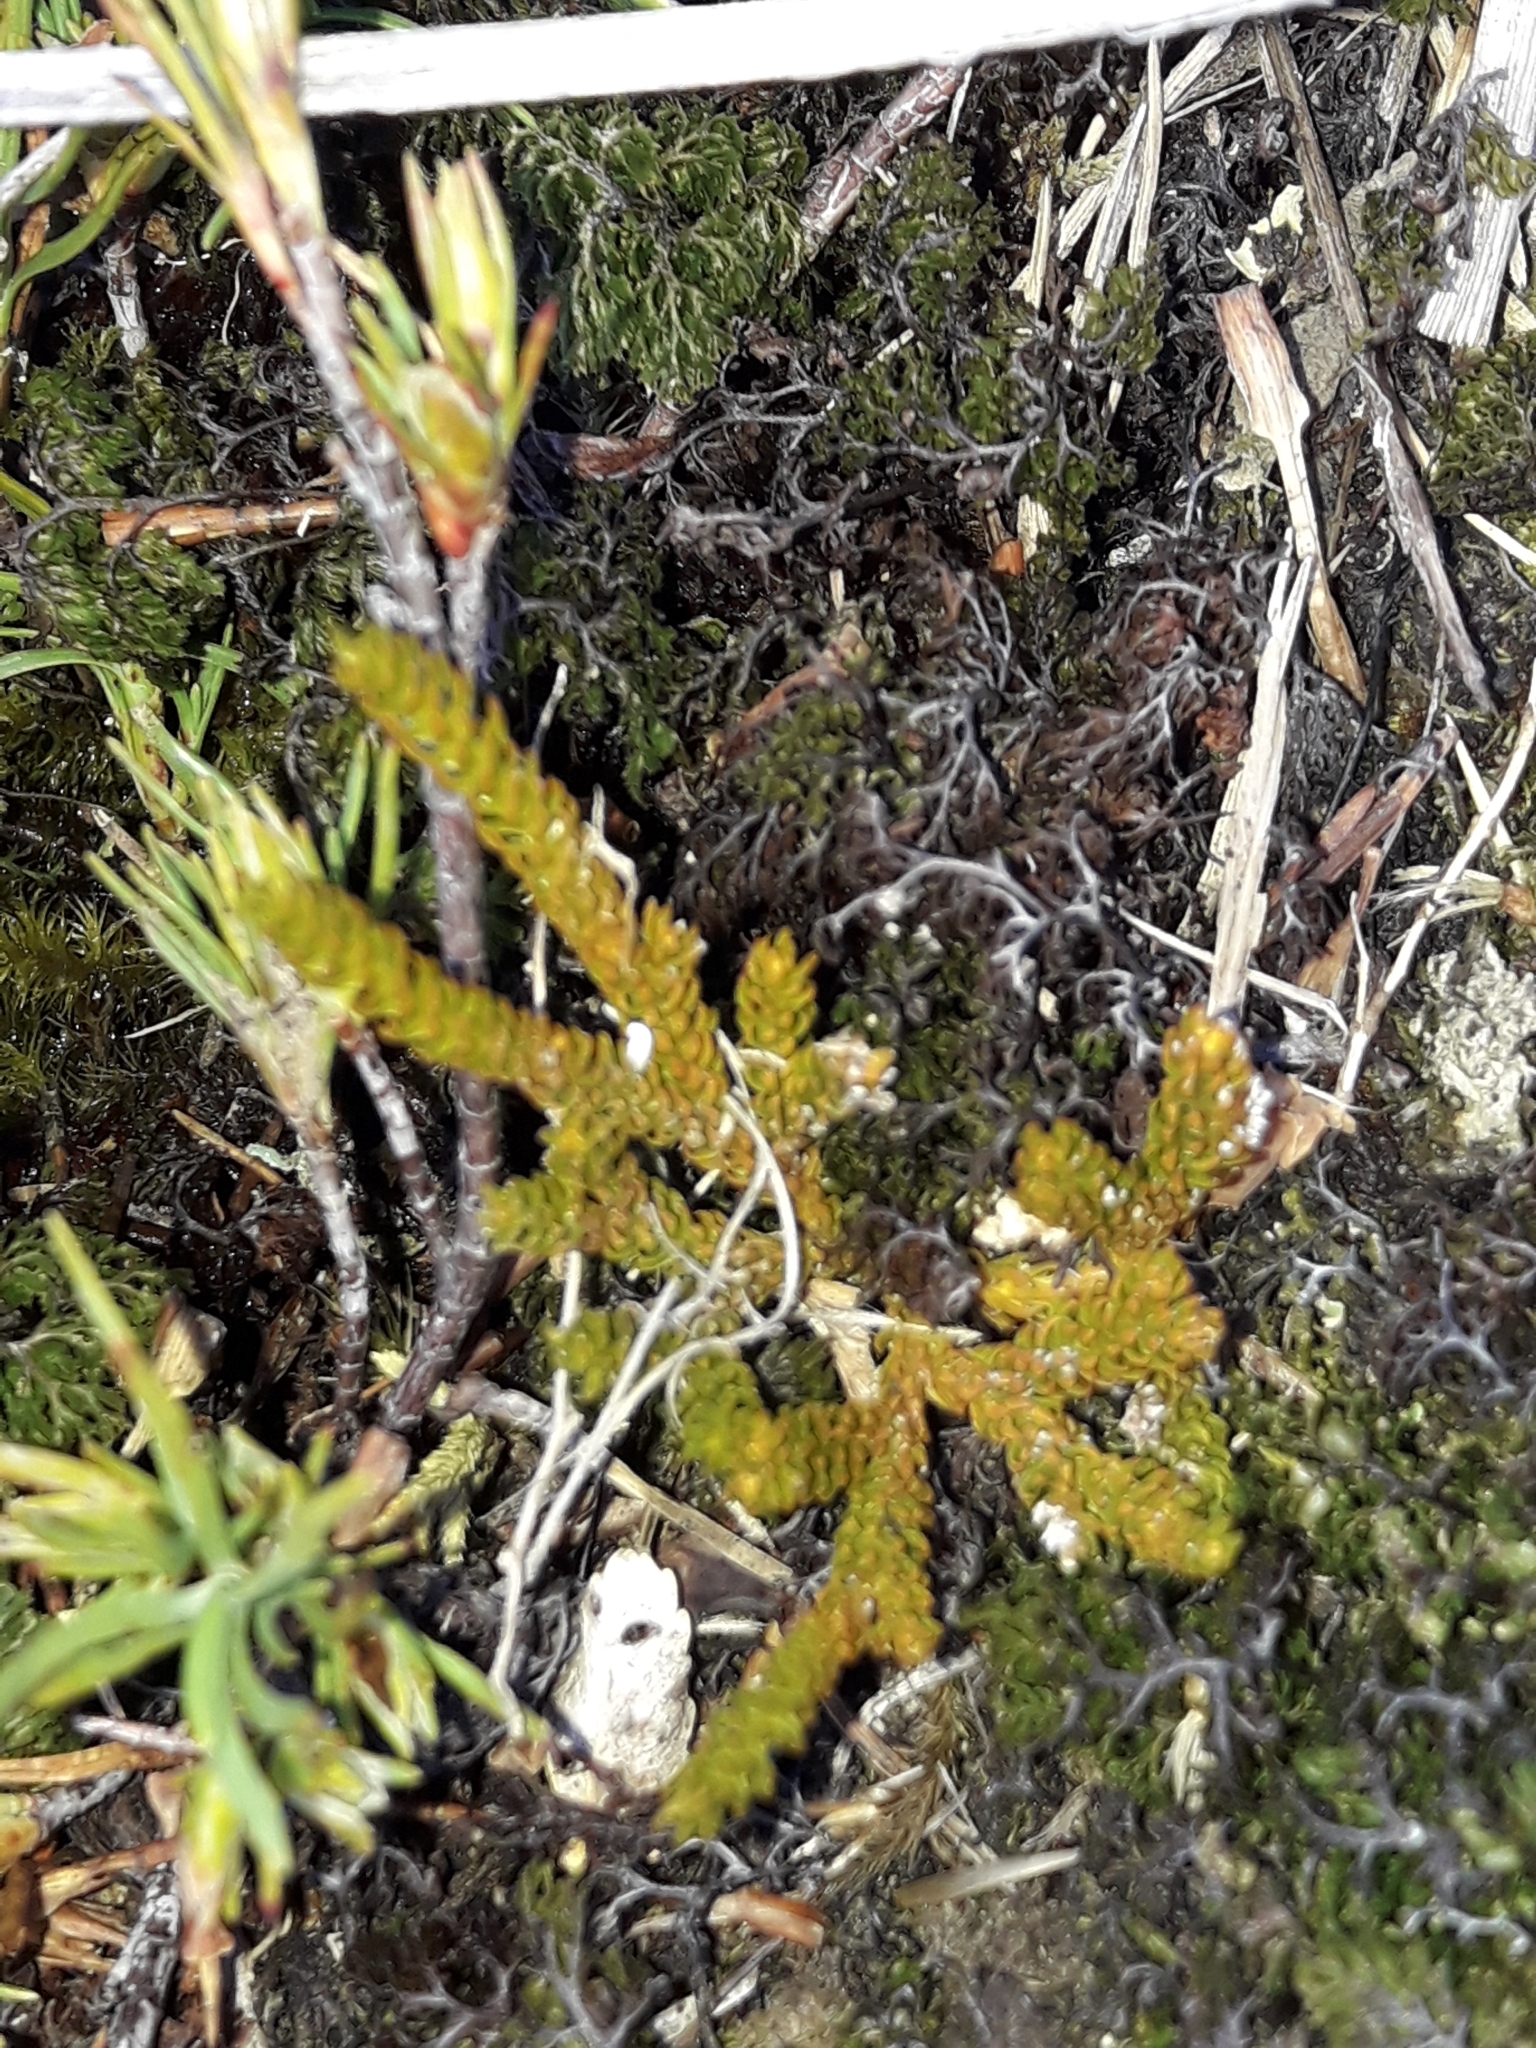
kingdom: Plantae
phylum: Tracheophyta
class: Lycopodiopsida
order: Lycopodiales
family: Lycopodiaceae
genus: Austrolycopodium
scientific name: Austrolycopodium fastigiatum
